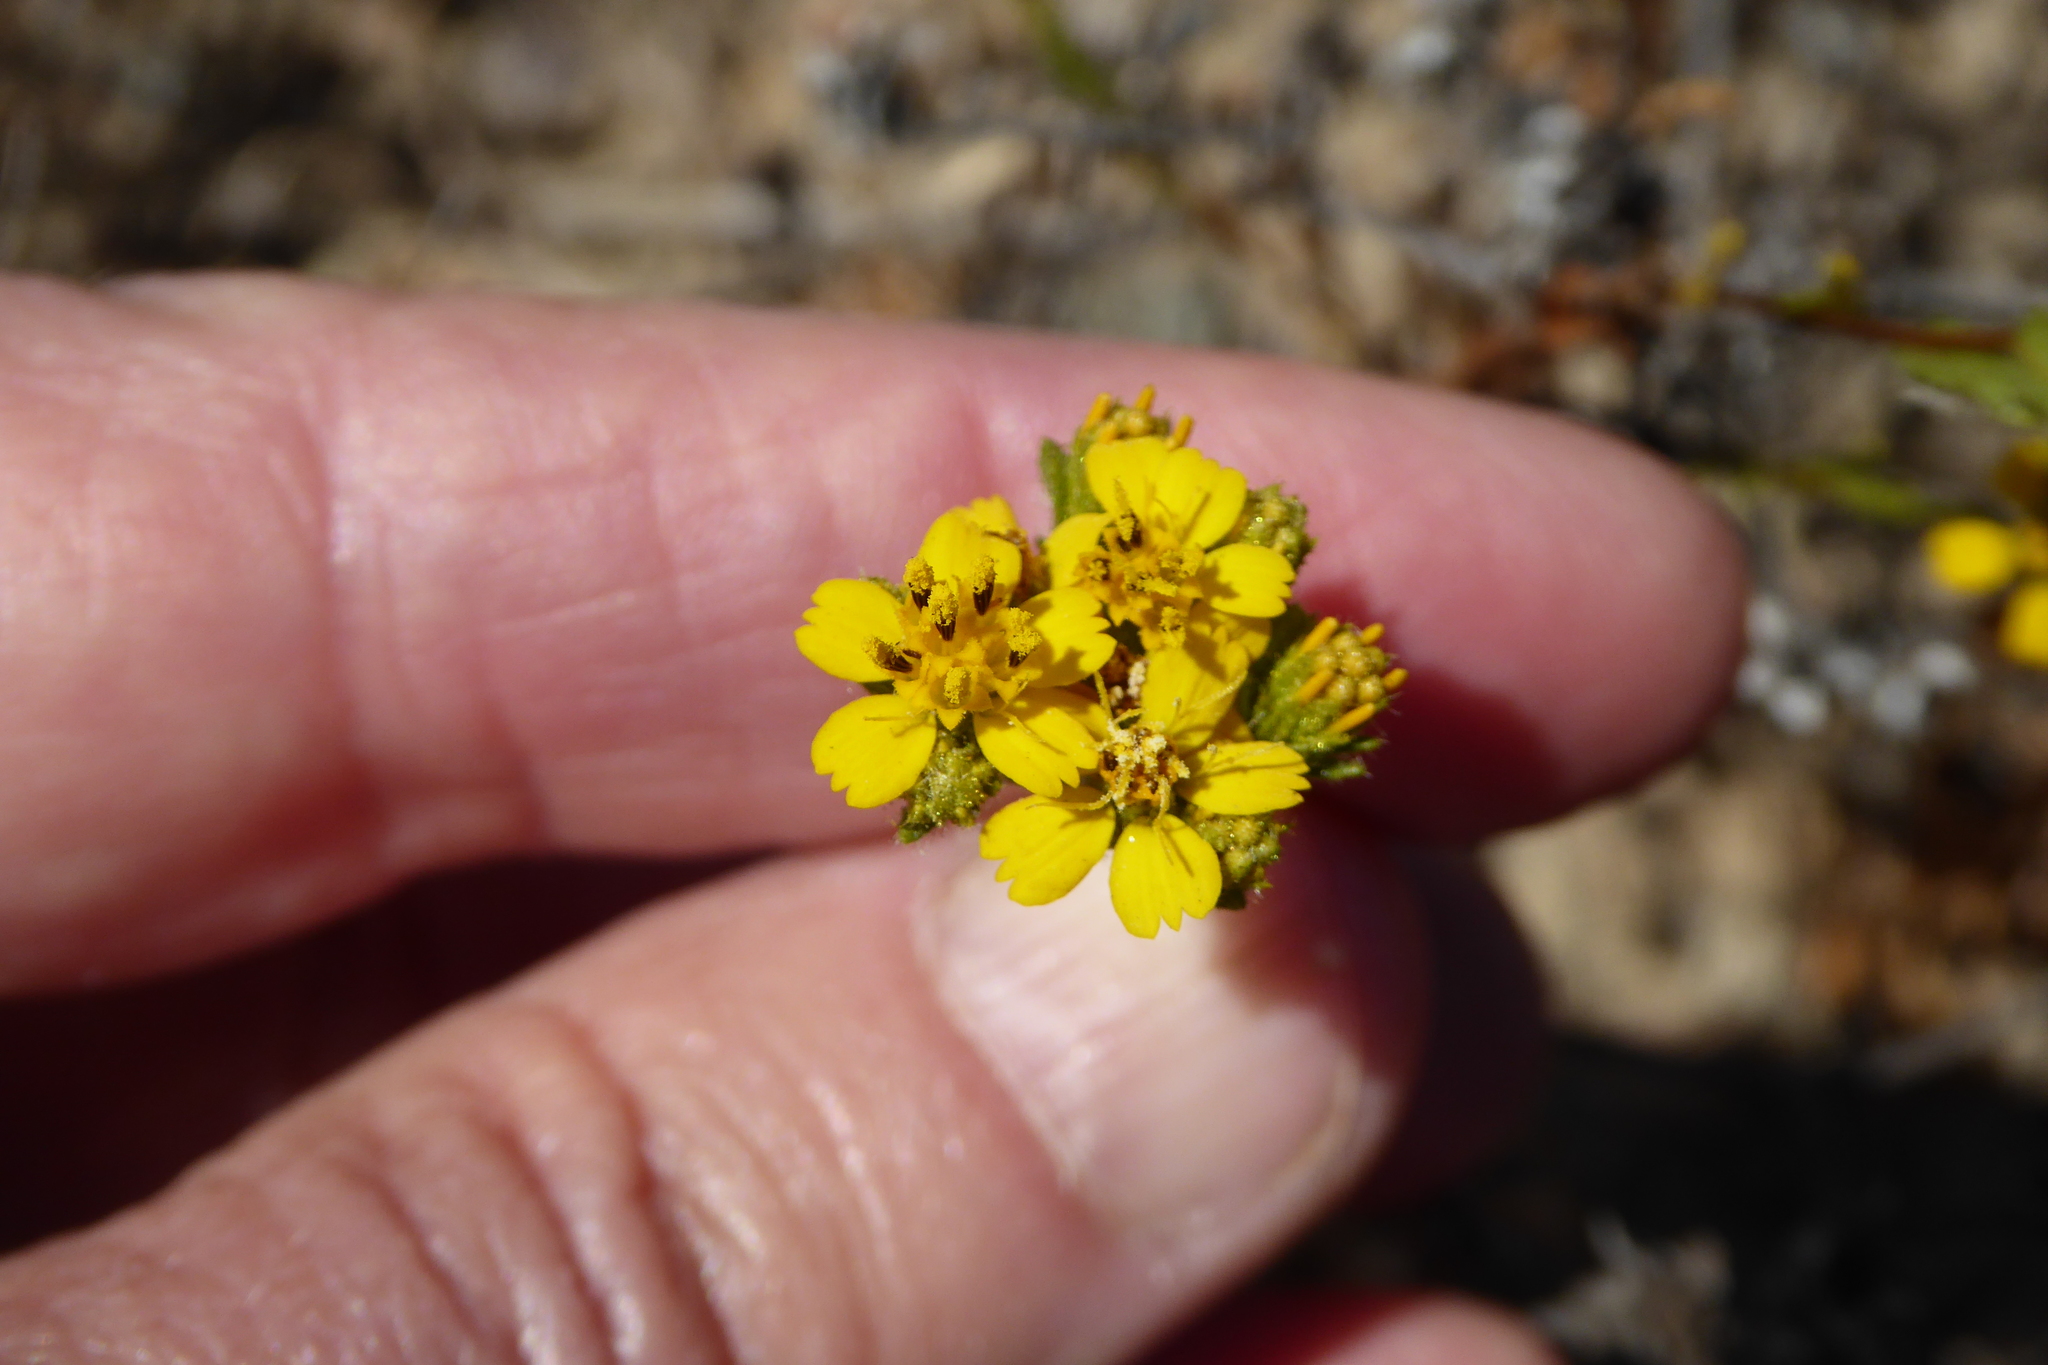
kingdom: Plantae
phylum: Tracheophyta
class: Magnoliopsida
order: Asterales
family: Asteraceae
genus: Deinandra
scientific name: Deinandra fasciculata
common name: Clustered tarweed
